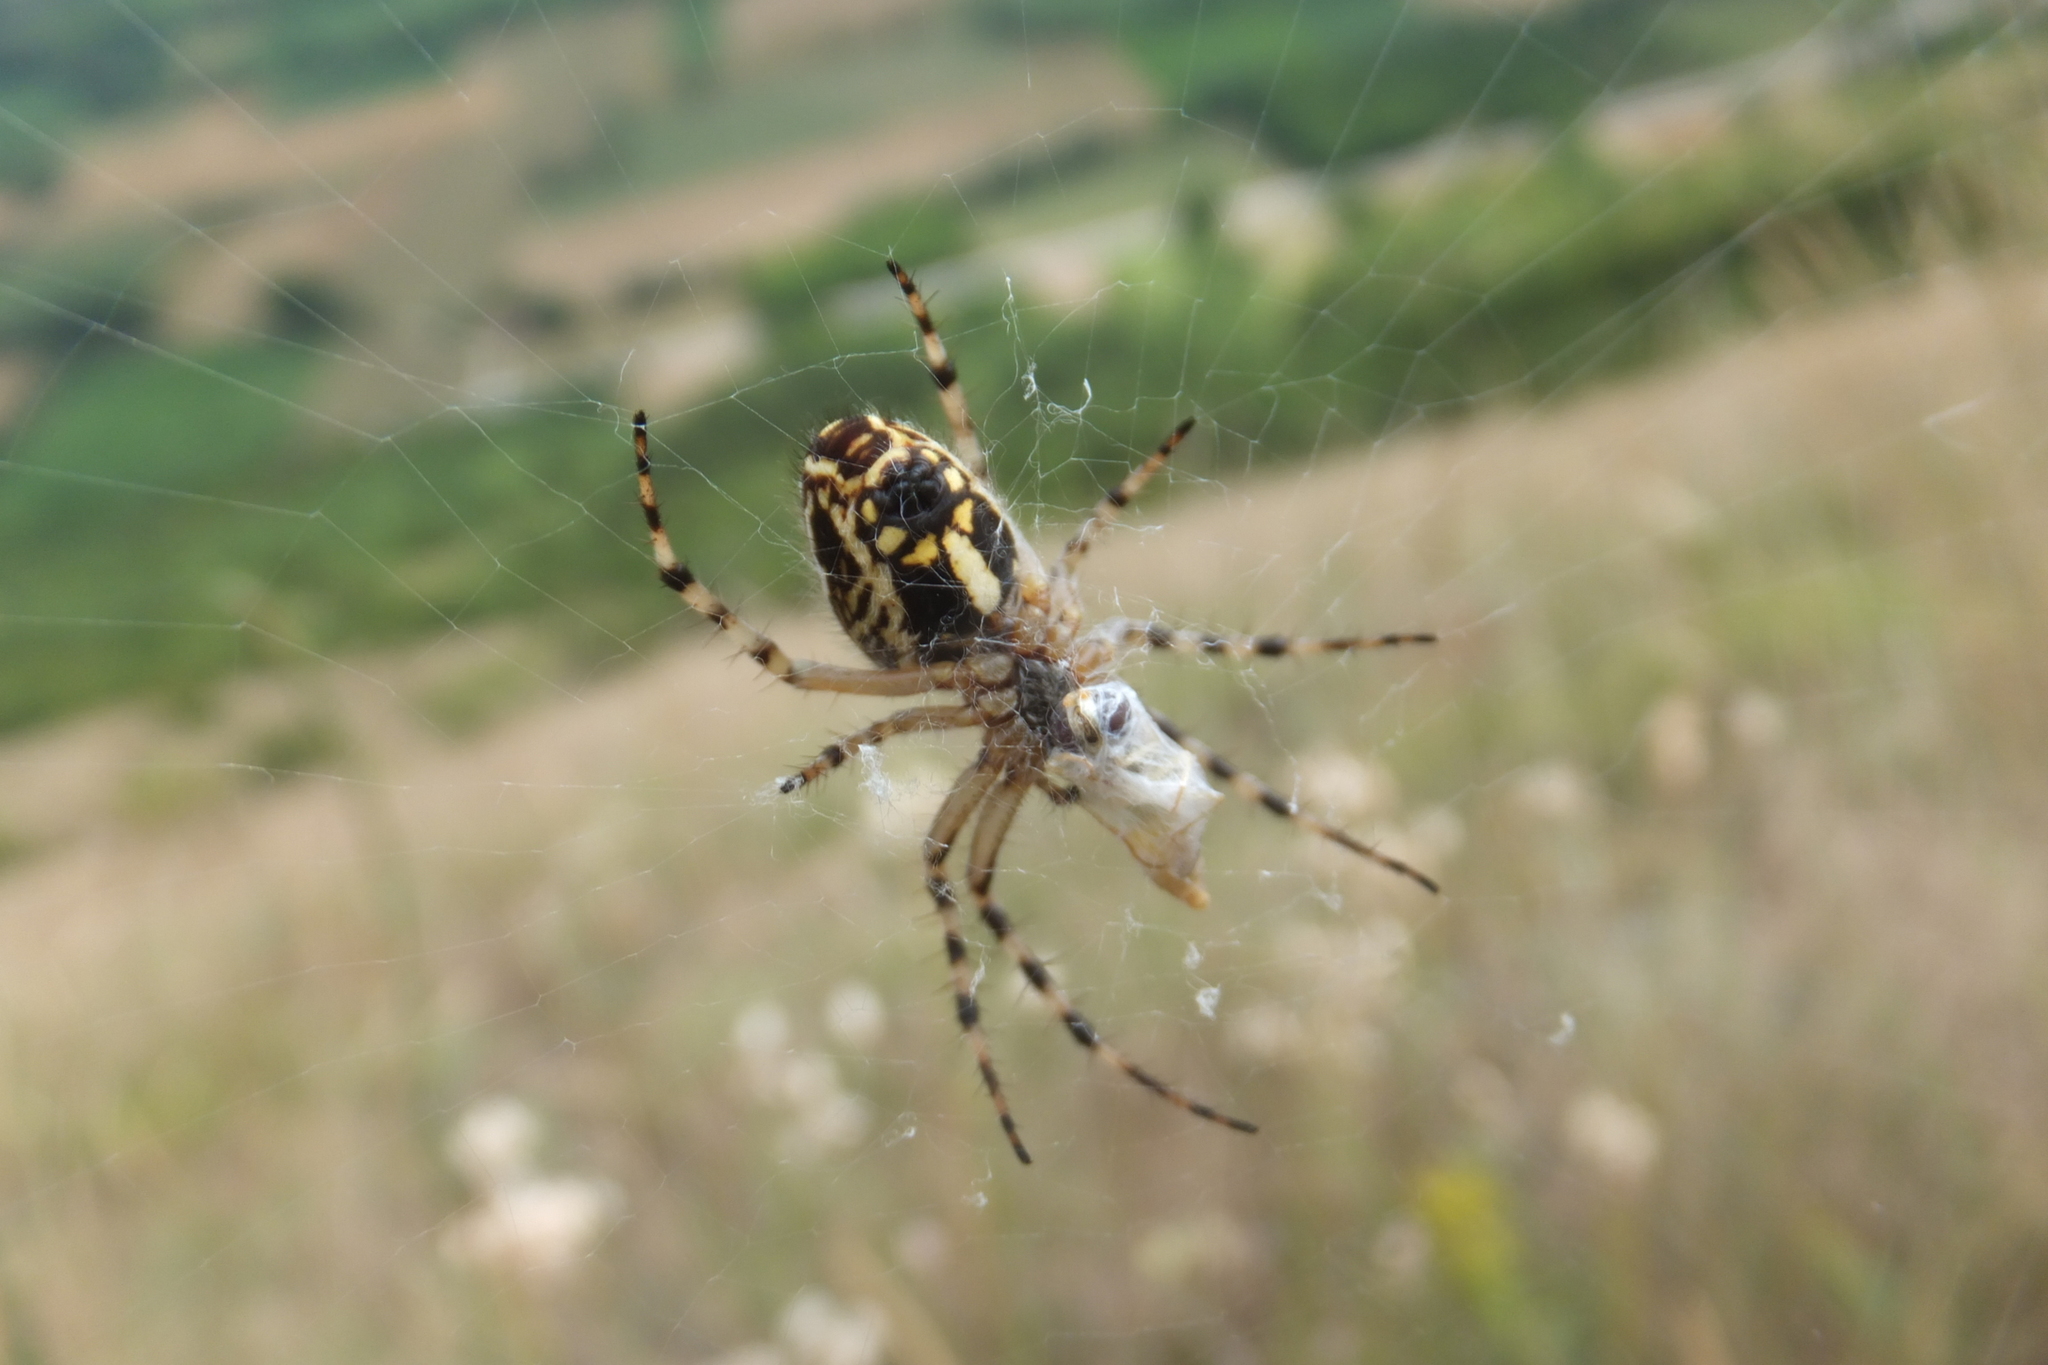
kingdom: Animalia
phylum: Arthropoda
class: Arachnida
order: Araneae
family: Araneidae
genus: Aculepeira
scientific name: Aculepeira armida
